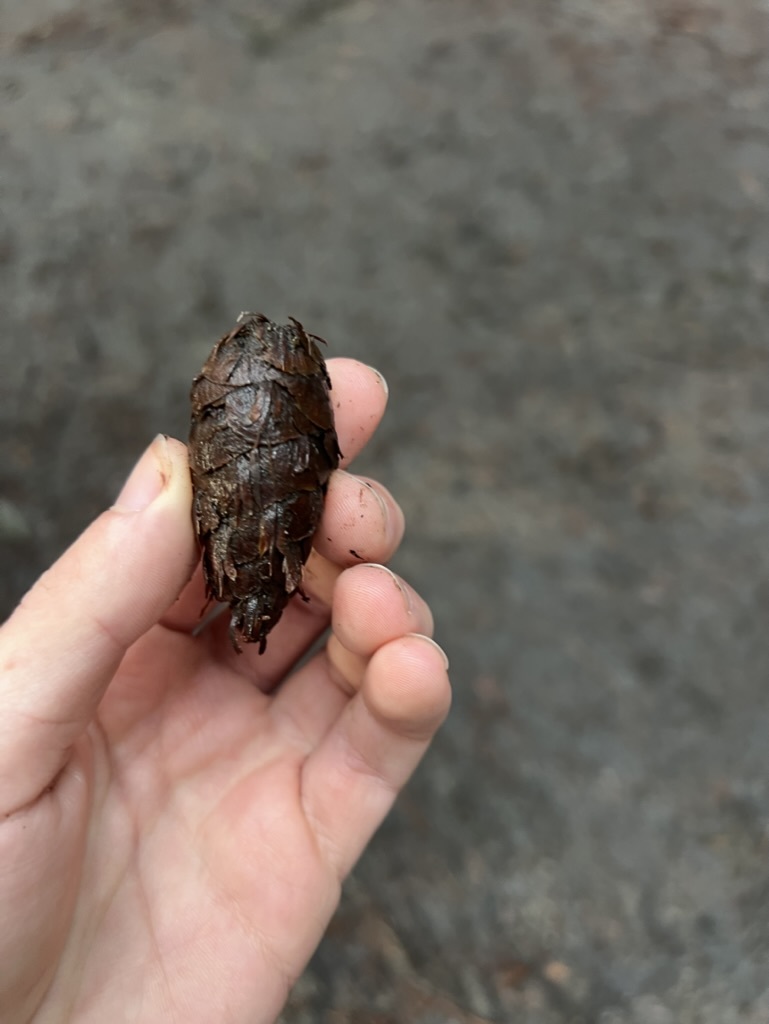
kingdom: Plantae
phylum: Tracheophyta
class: Pinopsida
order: Pinales
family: Pinaceae
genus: Pseudotsuga
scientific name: Pseudotsuga menziesii
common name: Douglas fir
